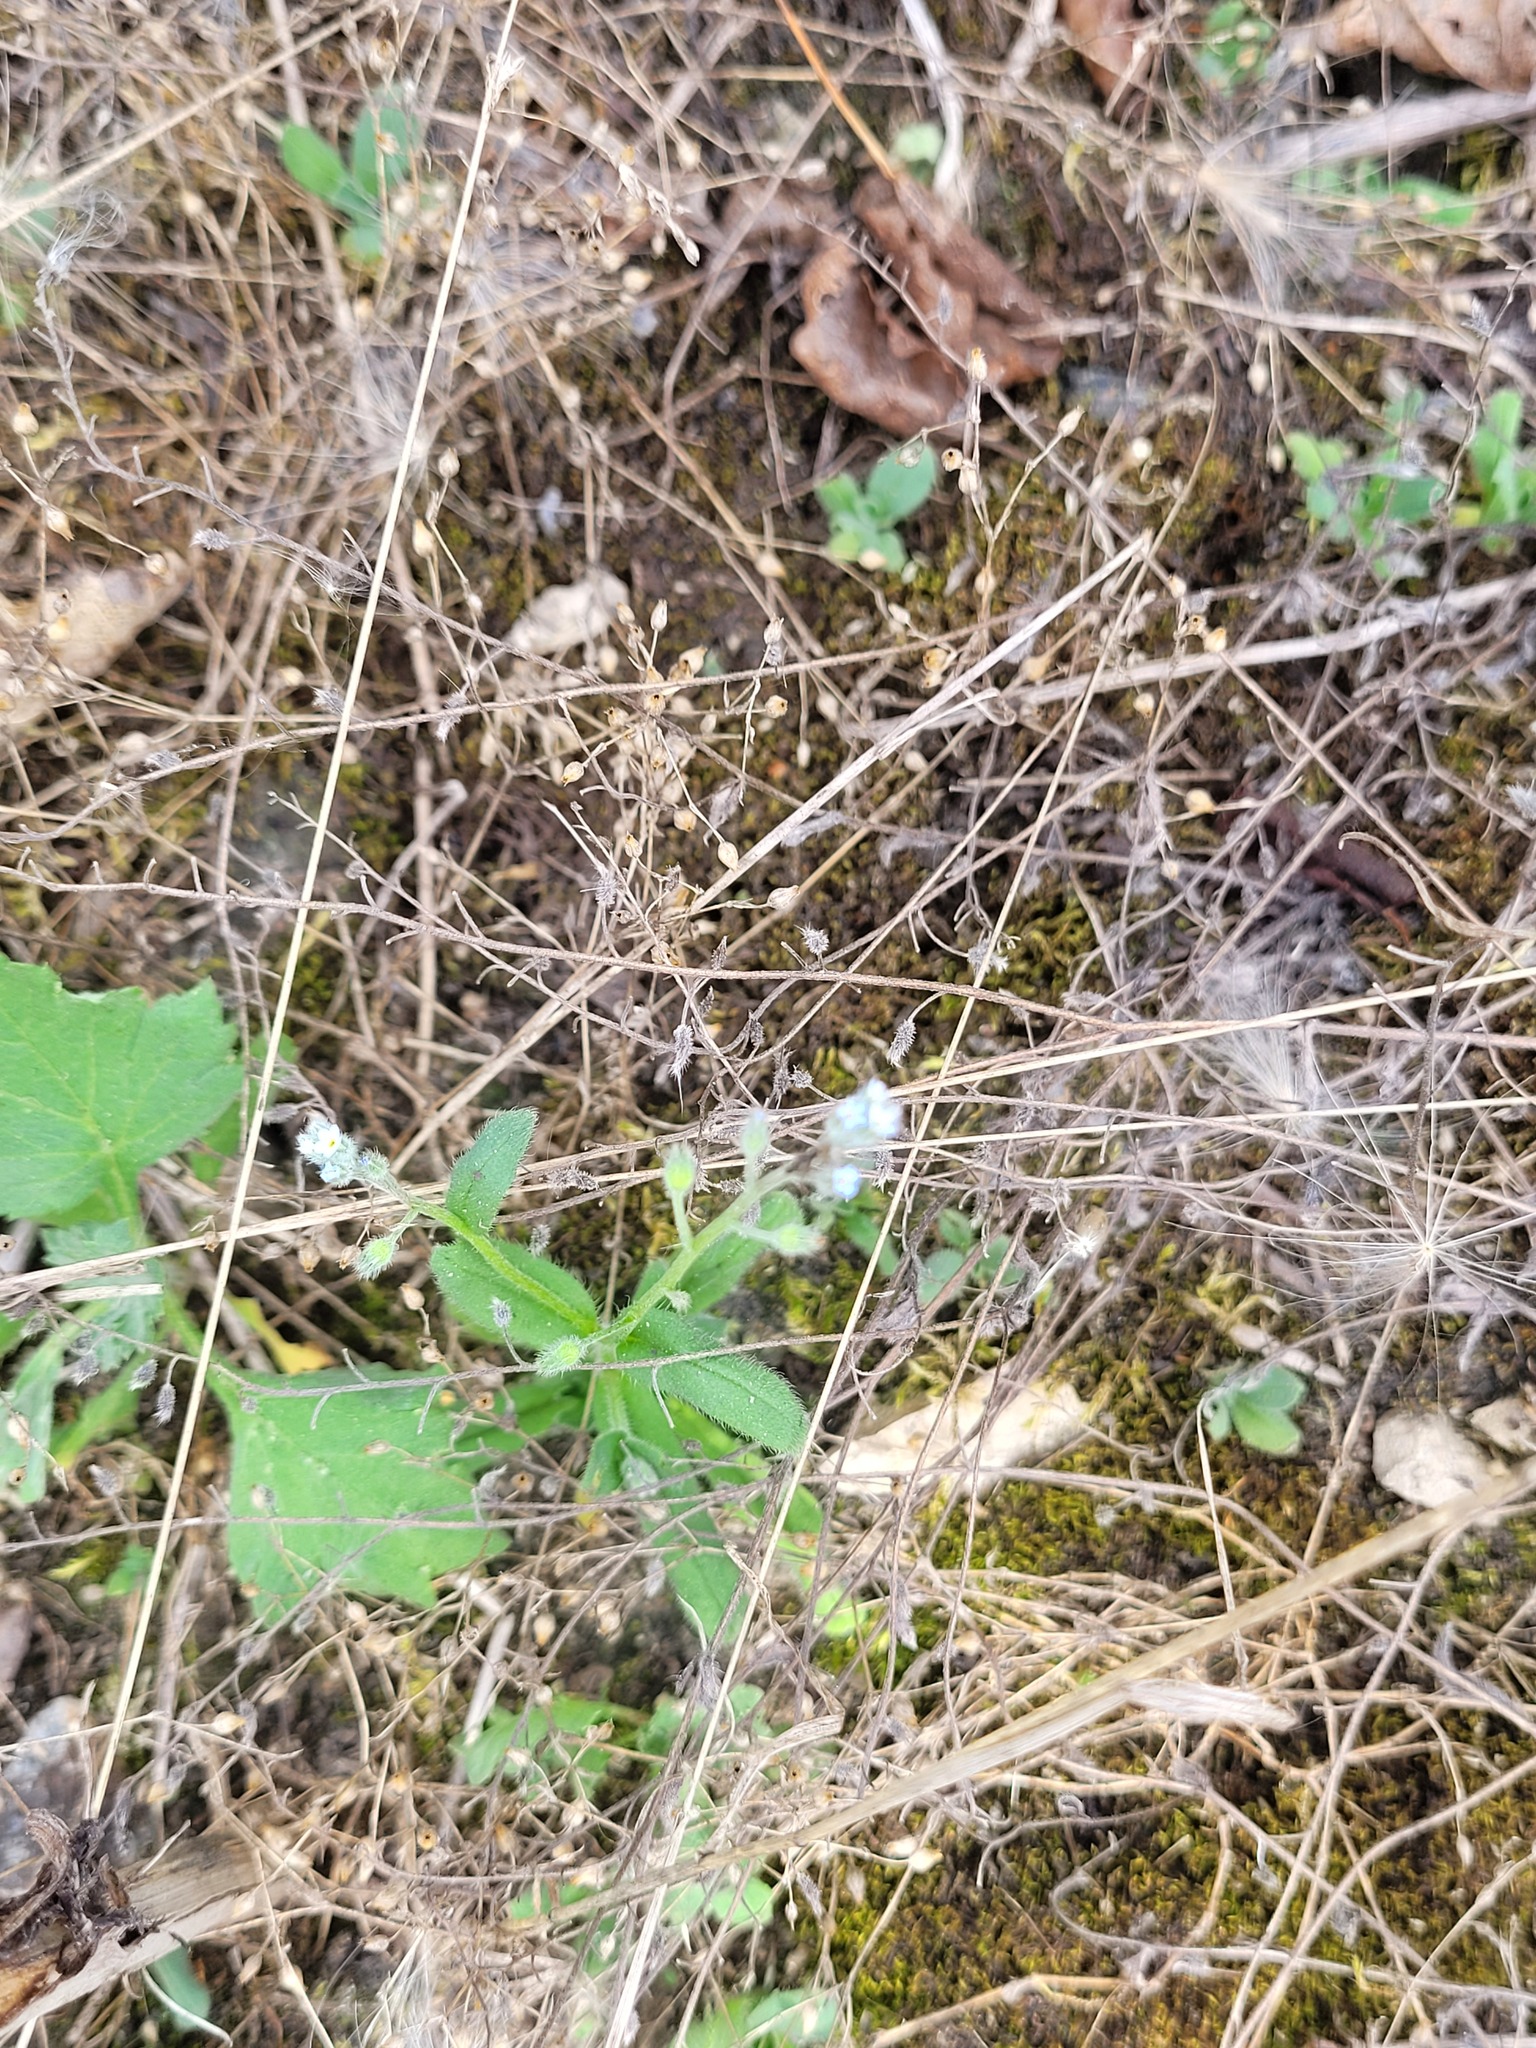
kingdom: Plantae
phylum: Tracheophyta
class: Magnoliopsida
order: Boraginales
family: Boraginaceae
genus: Myosotis
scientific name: Myosotis arvensis
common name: Field forget-me-not
